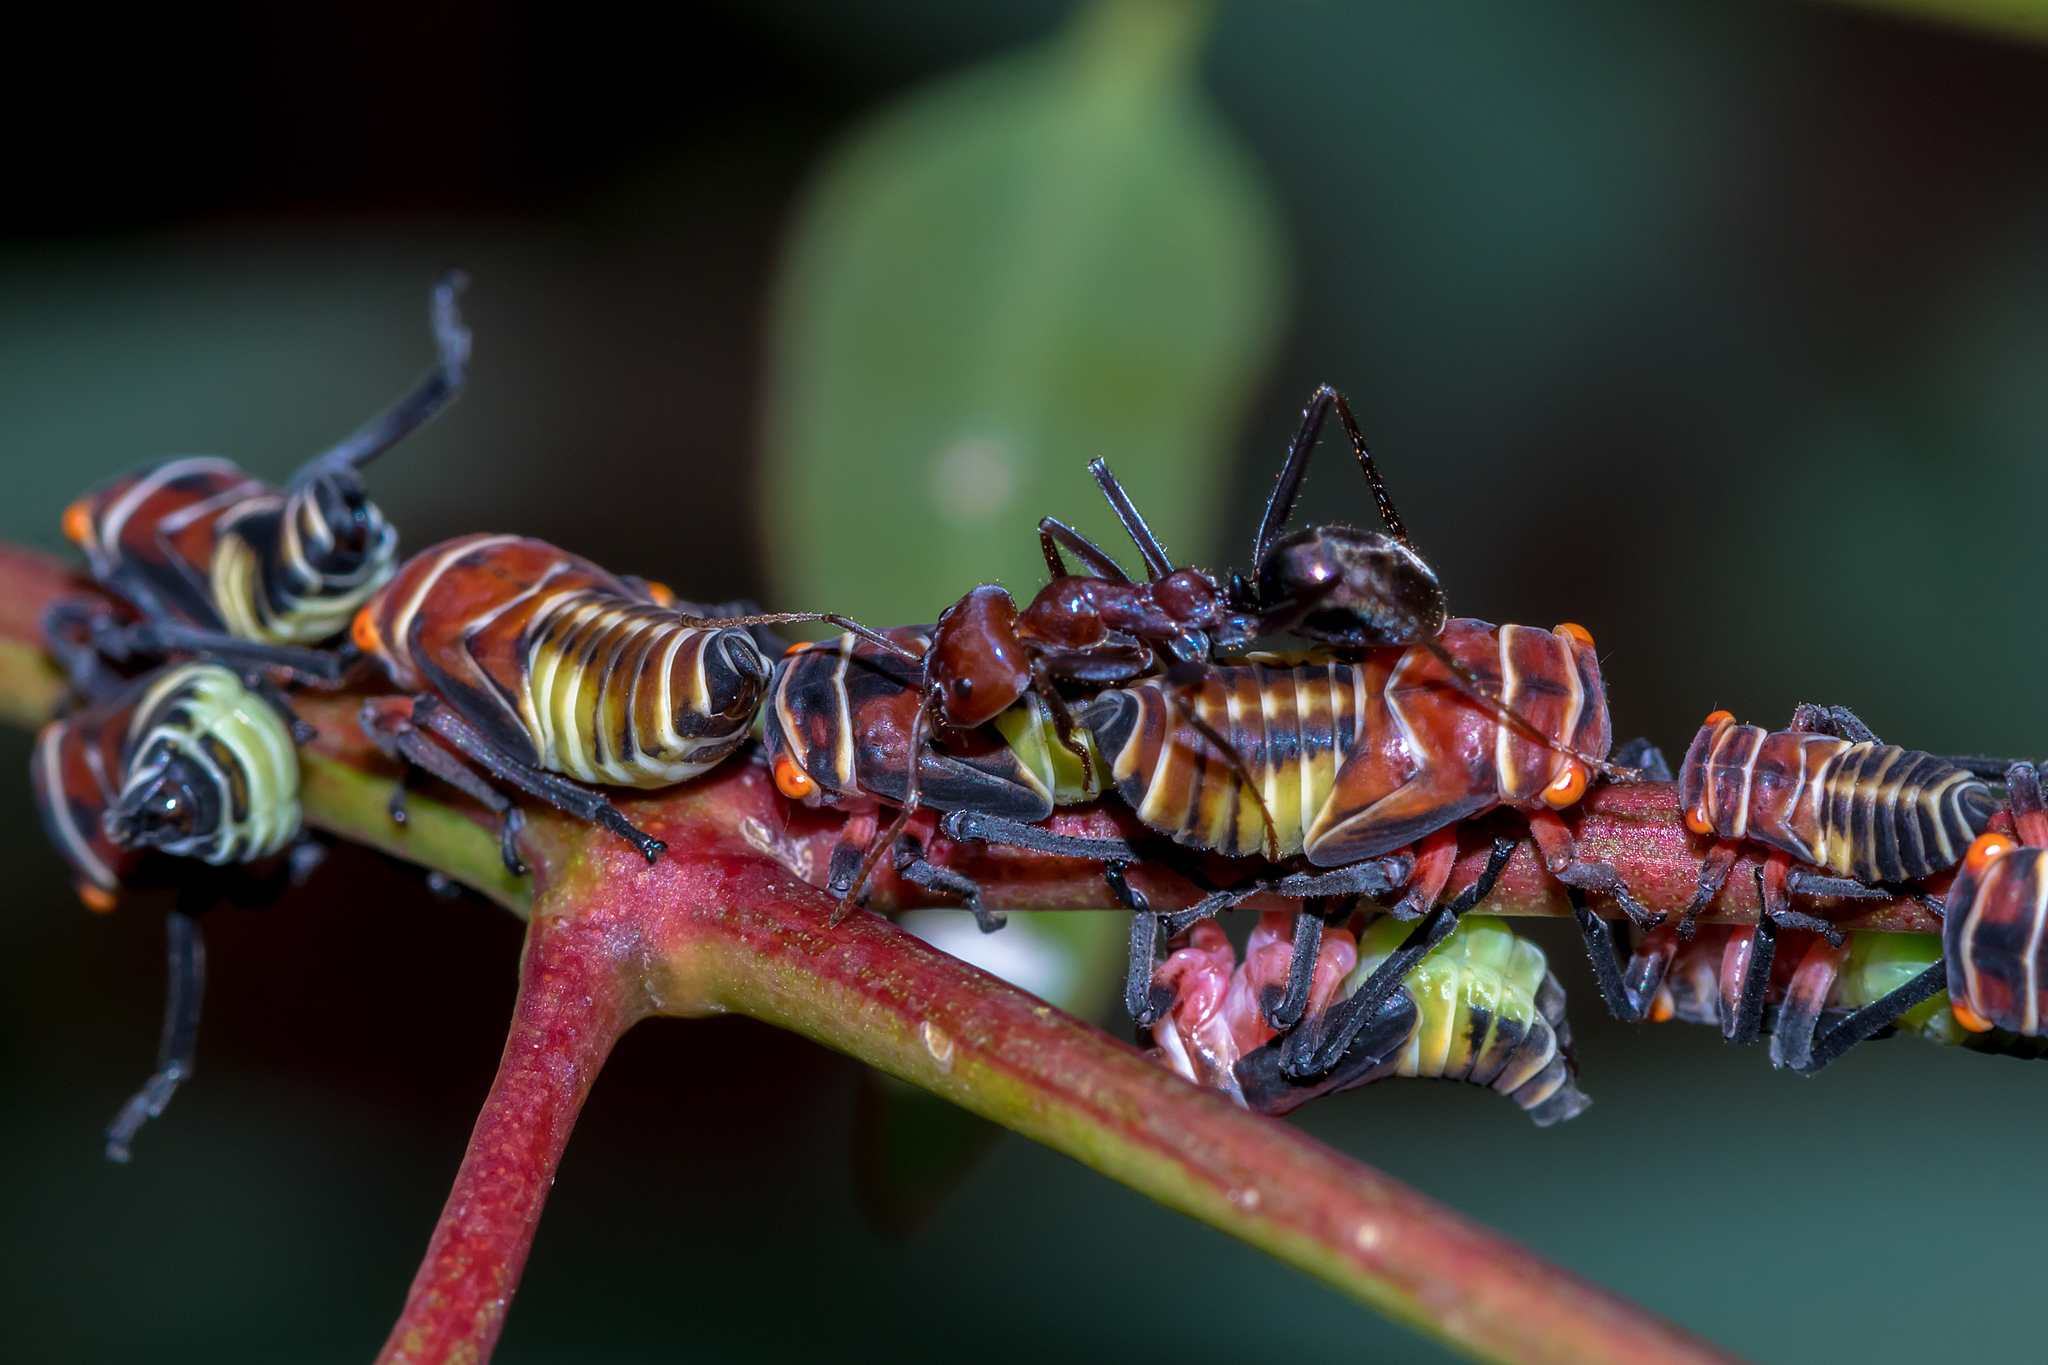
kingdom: Animalia
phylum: Arthropoda
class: Insecta
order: Hymenoptera
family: Formicidae
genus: Iridomyrmex
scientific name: Iridomyrmex purpureus
